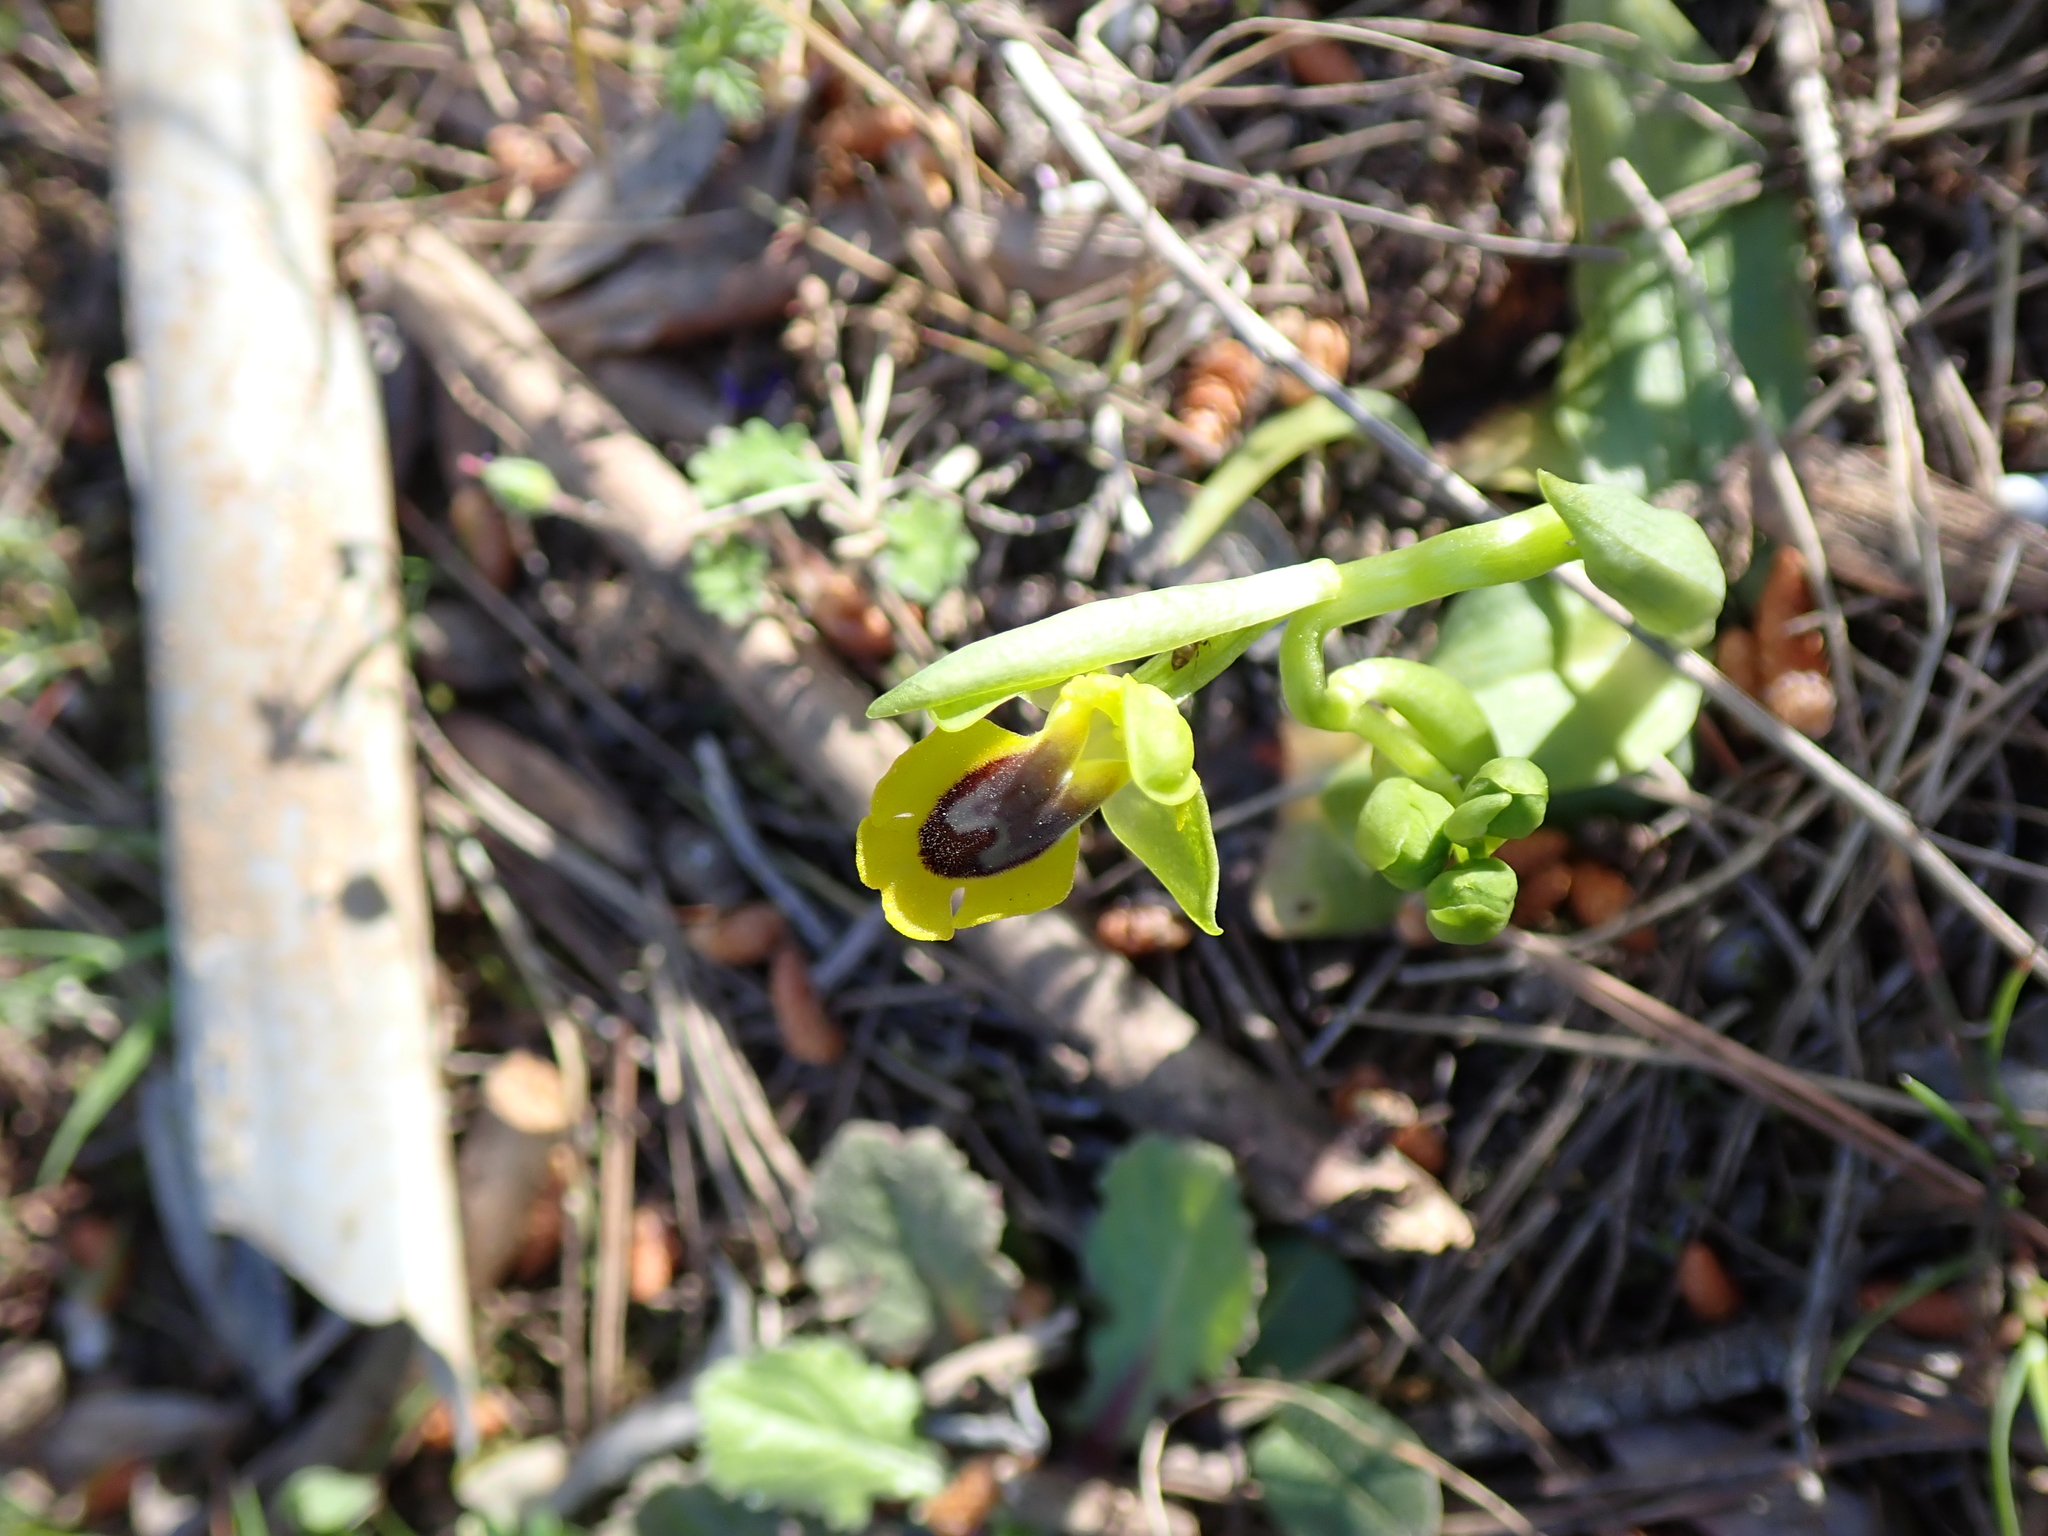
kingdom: Plantae
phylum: Tracheophyta
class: Liliopsida
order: Asparagales
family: Orchidaceae
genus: Ophrys
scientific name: Ophrys lutea
